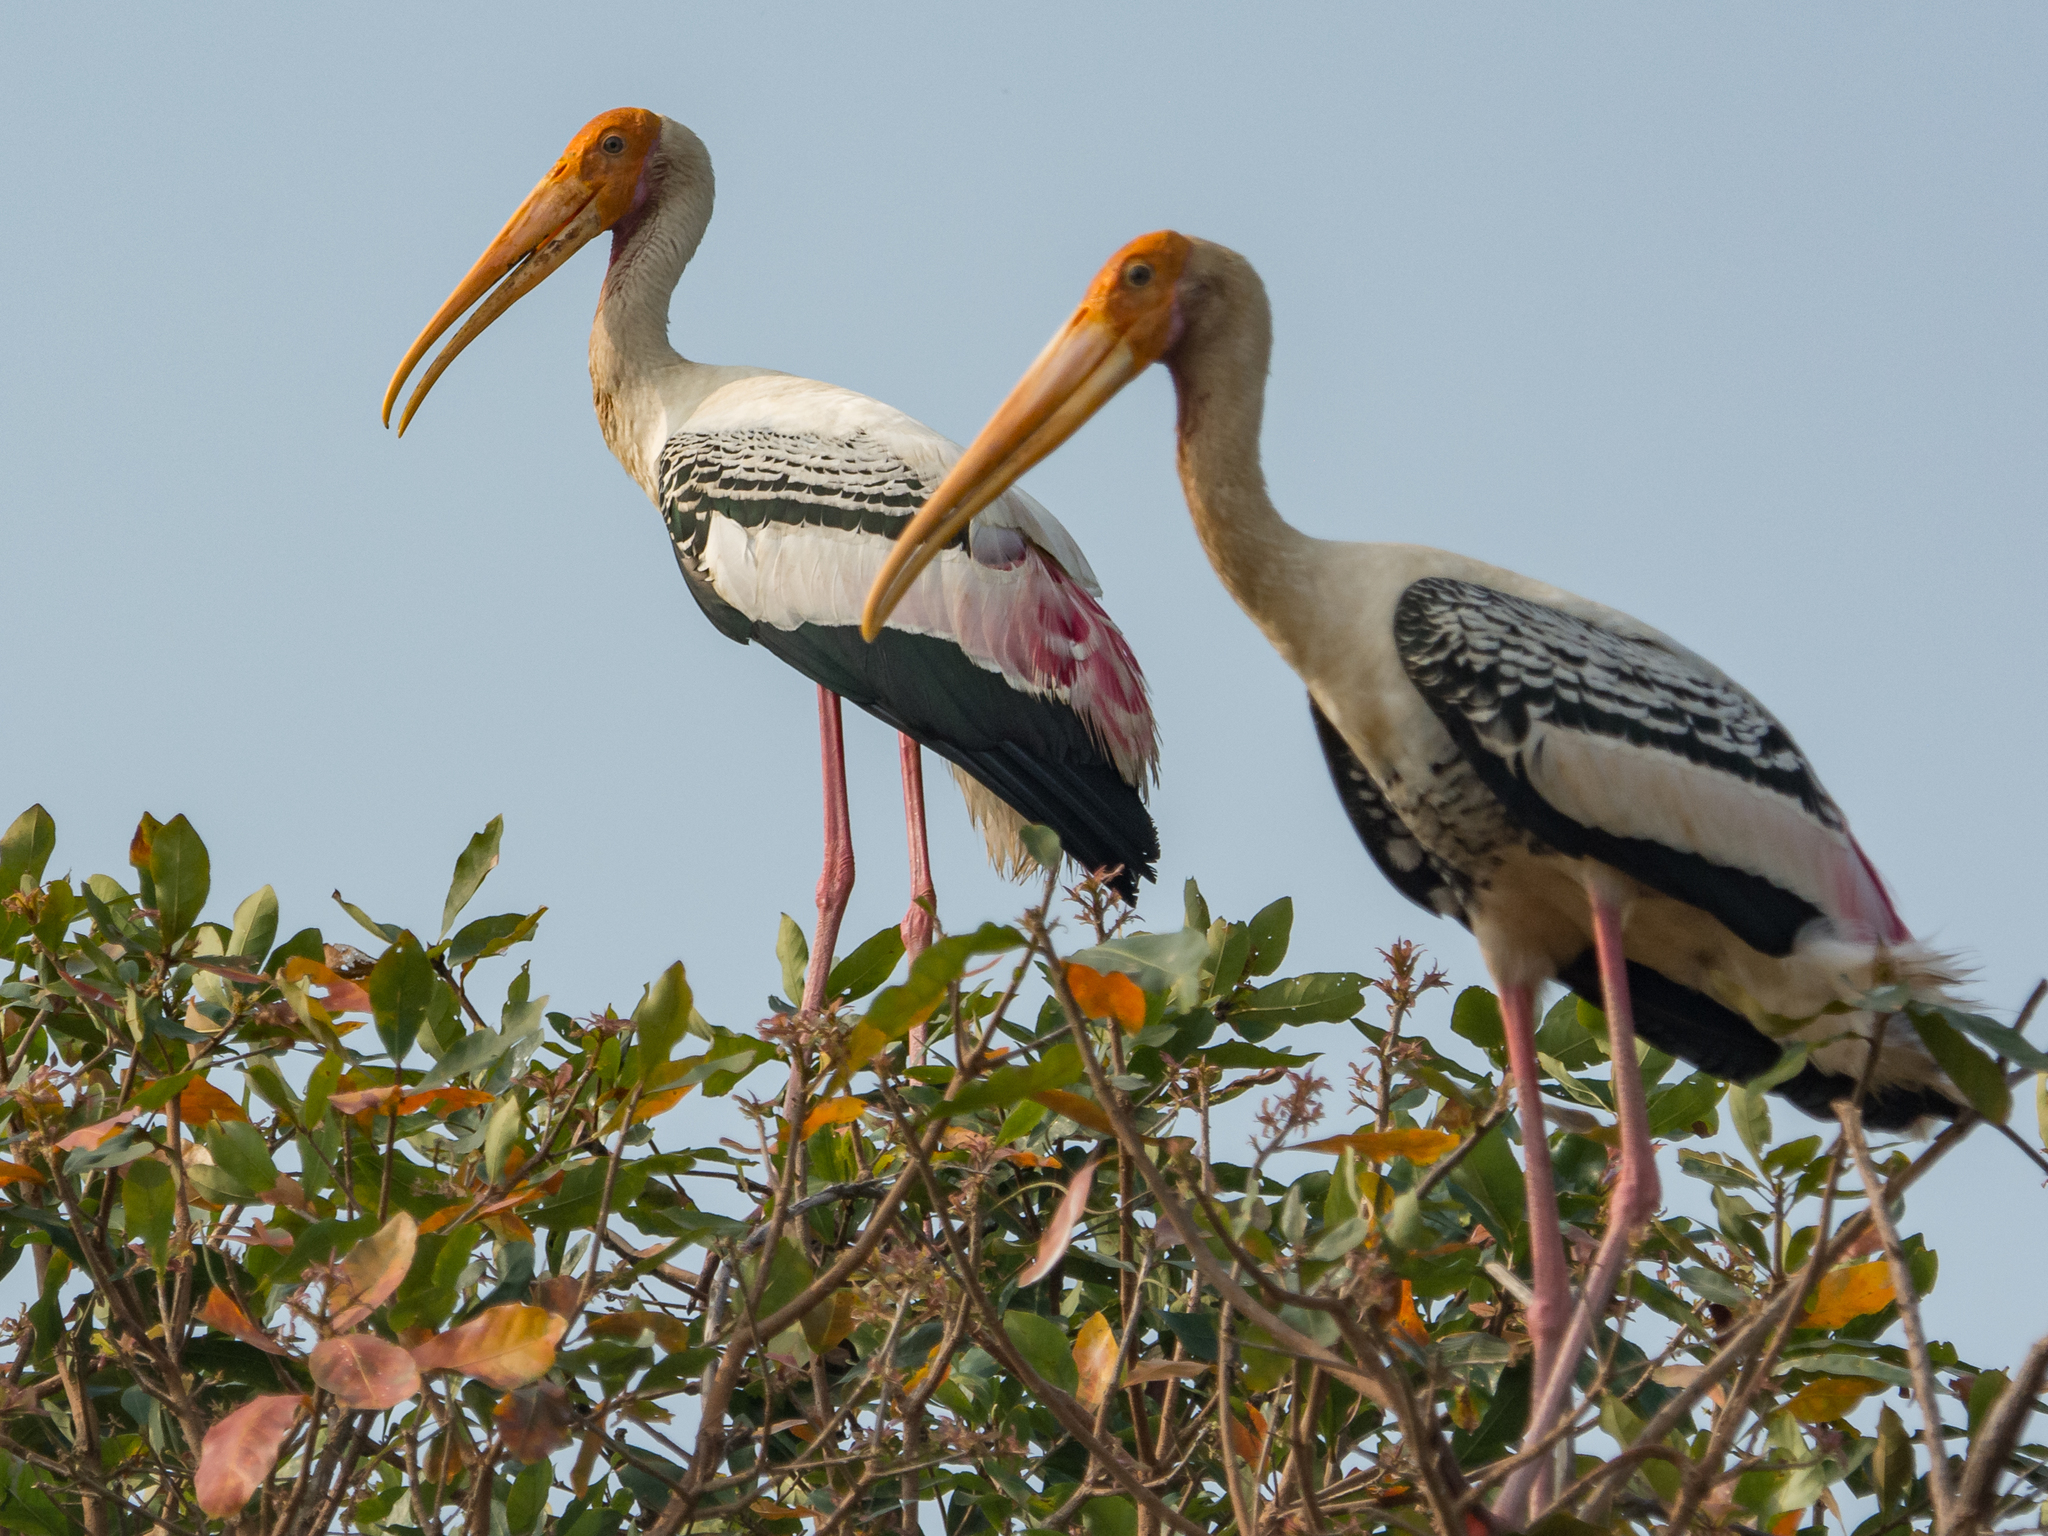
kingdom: Animalia
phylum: Chordata
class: Aves
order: Ciconiiformes
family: Ciconiidae
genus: Mycteria
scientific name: Mycteria leucocephala
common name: Painted stork
